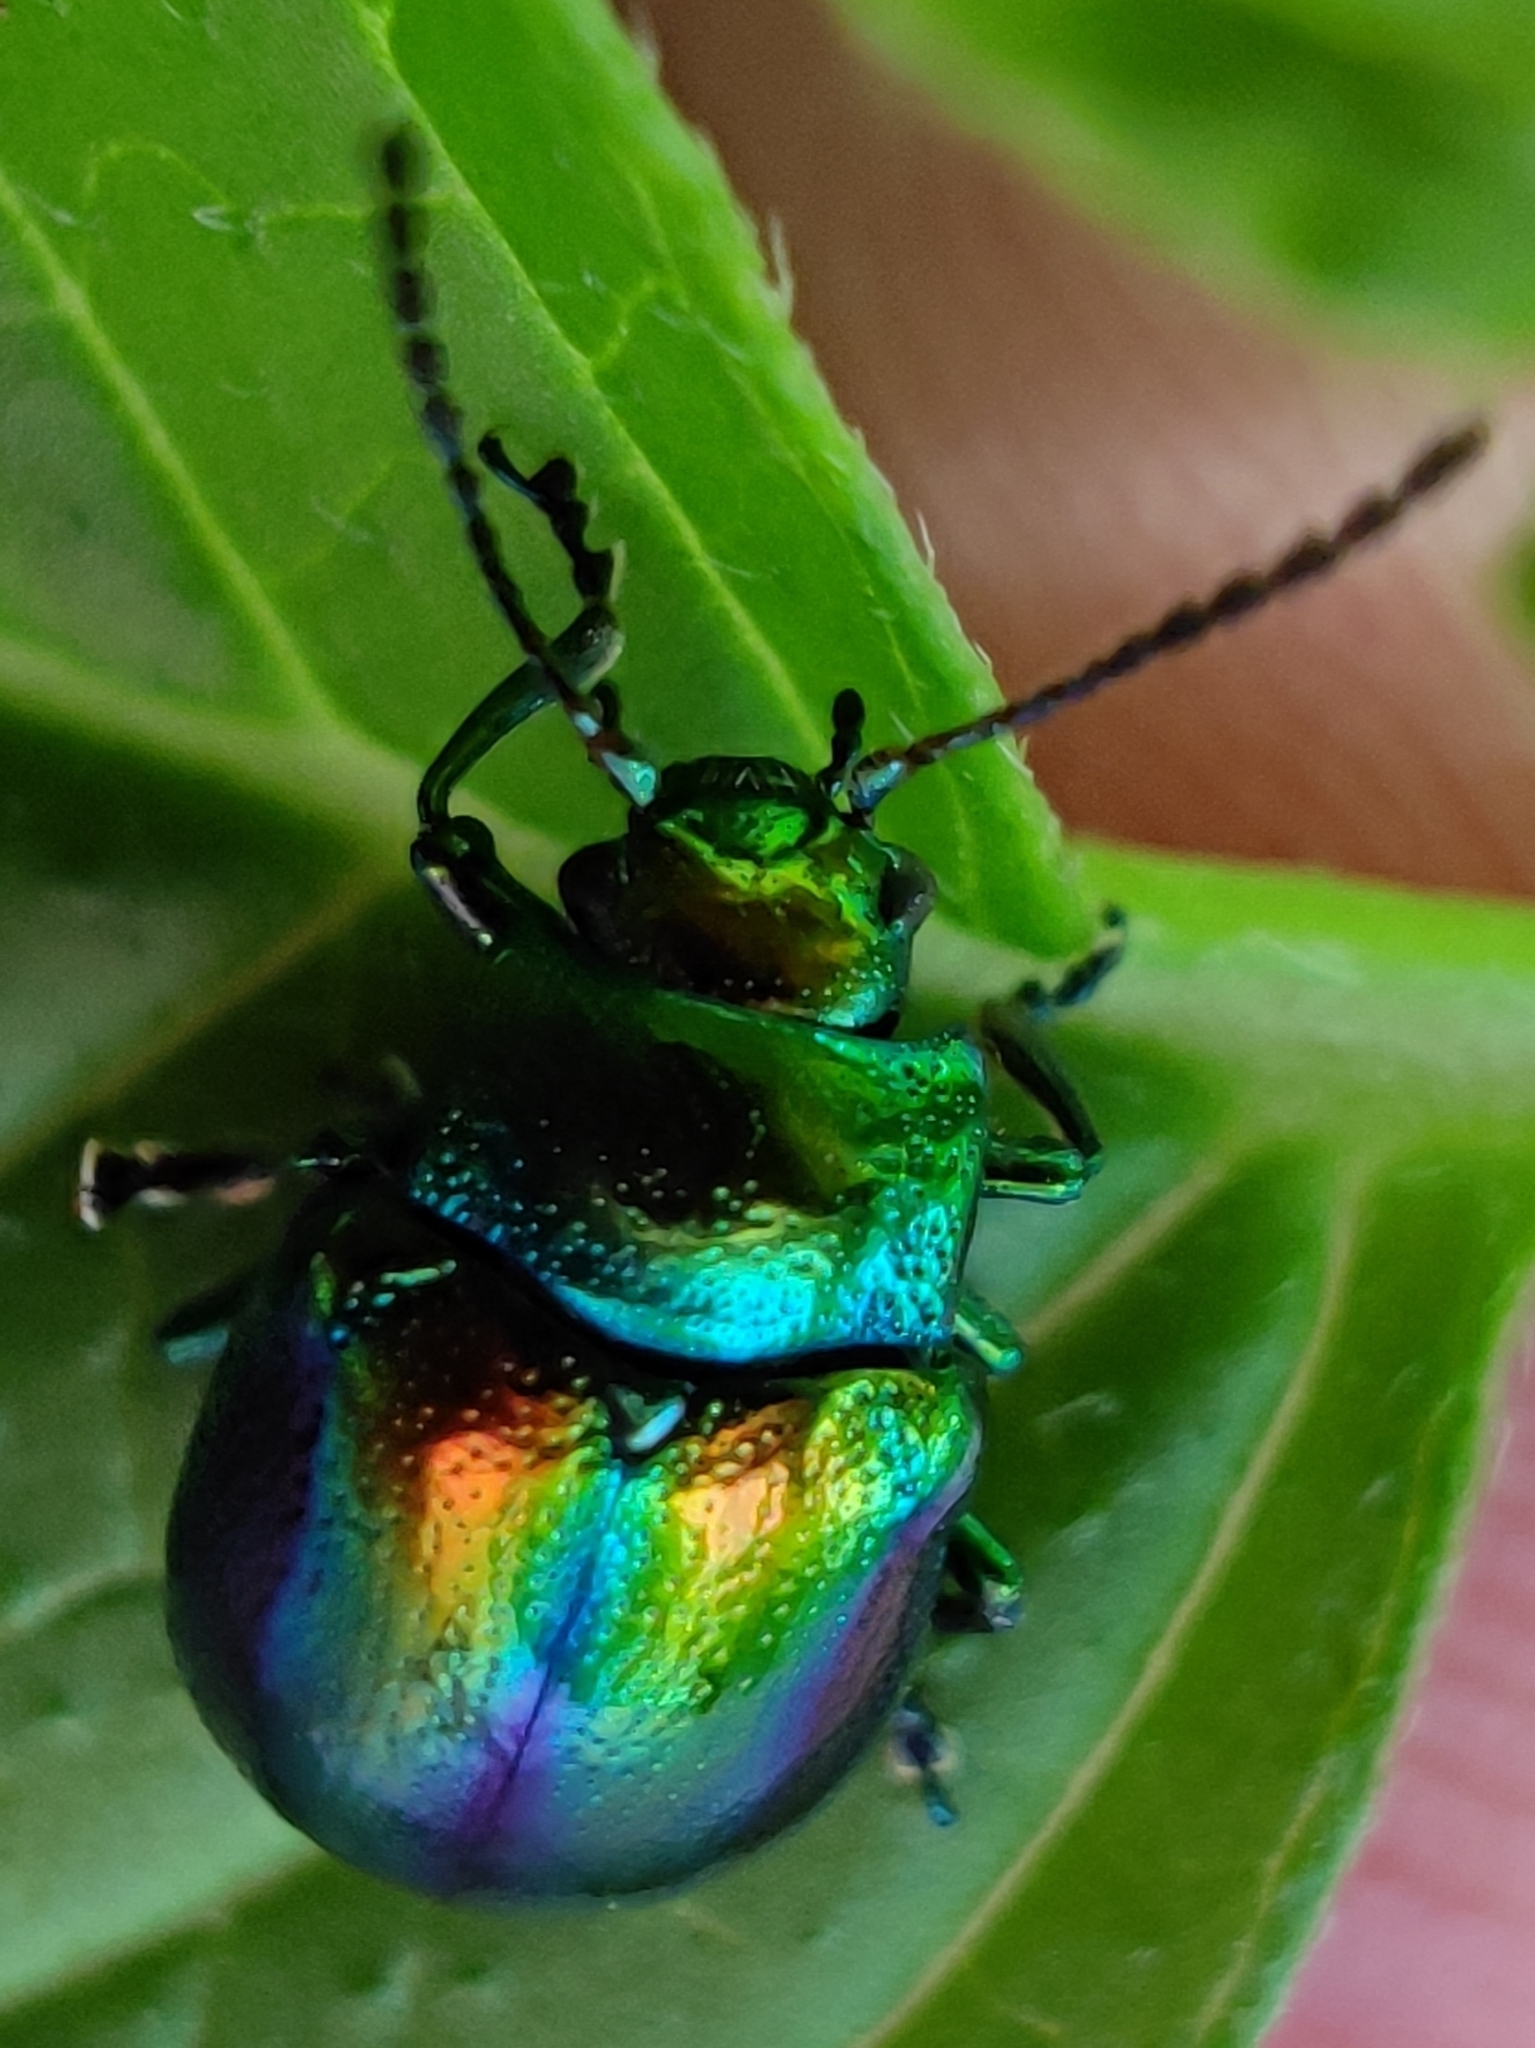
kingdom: Animalia
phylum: Arthropoda
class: Insecta
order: Coleoptera
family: Chrysomelidae
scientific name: Chrysomelidae
